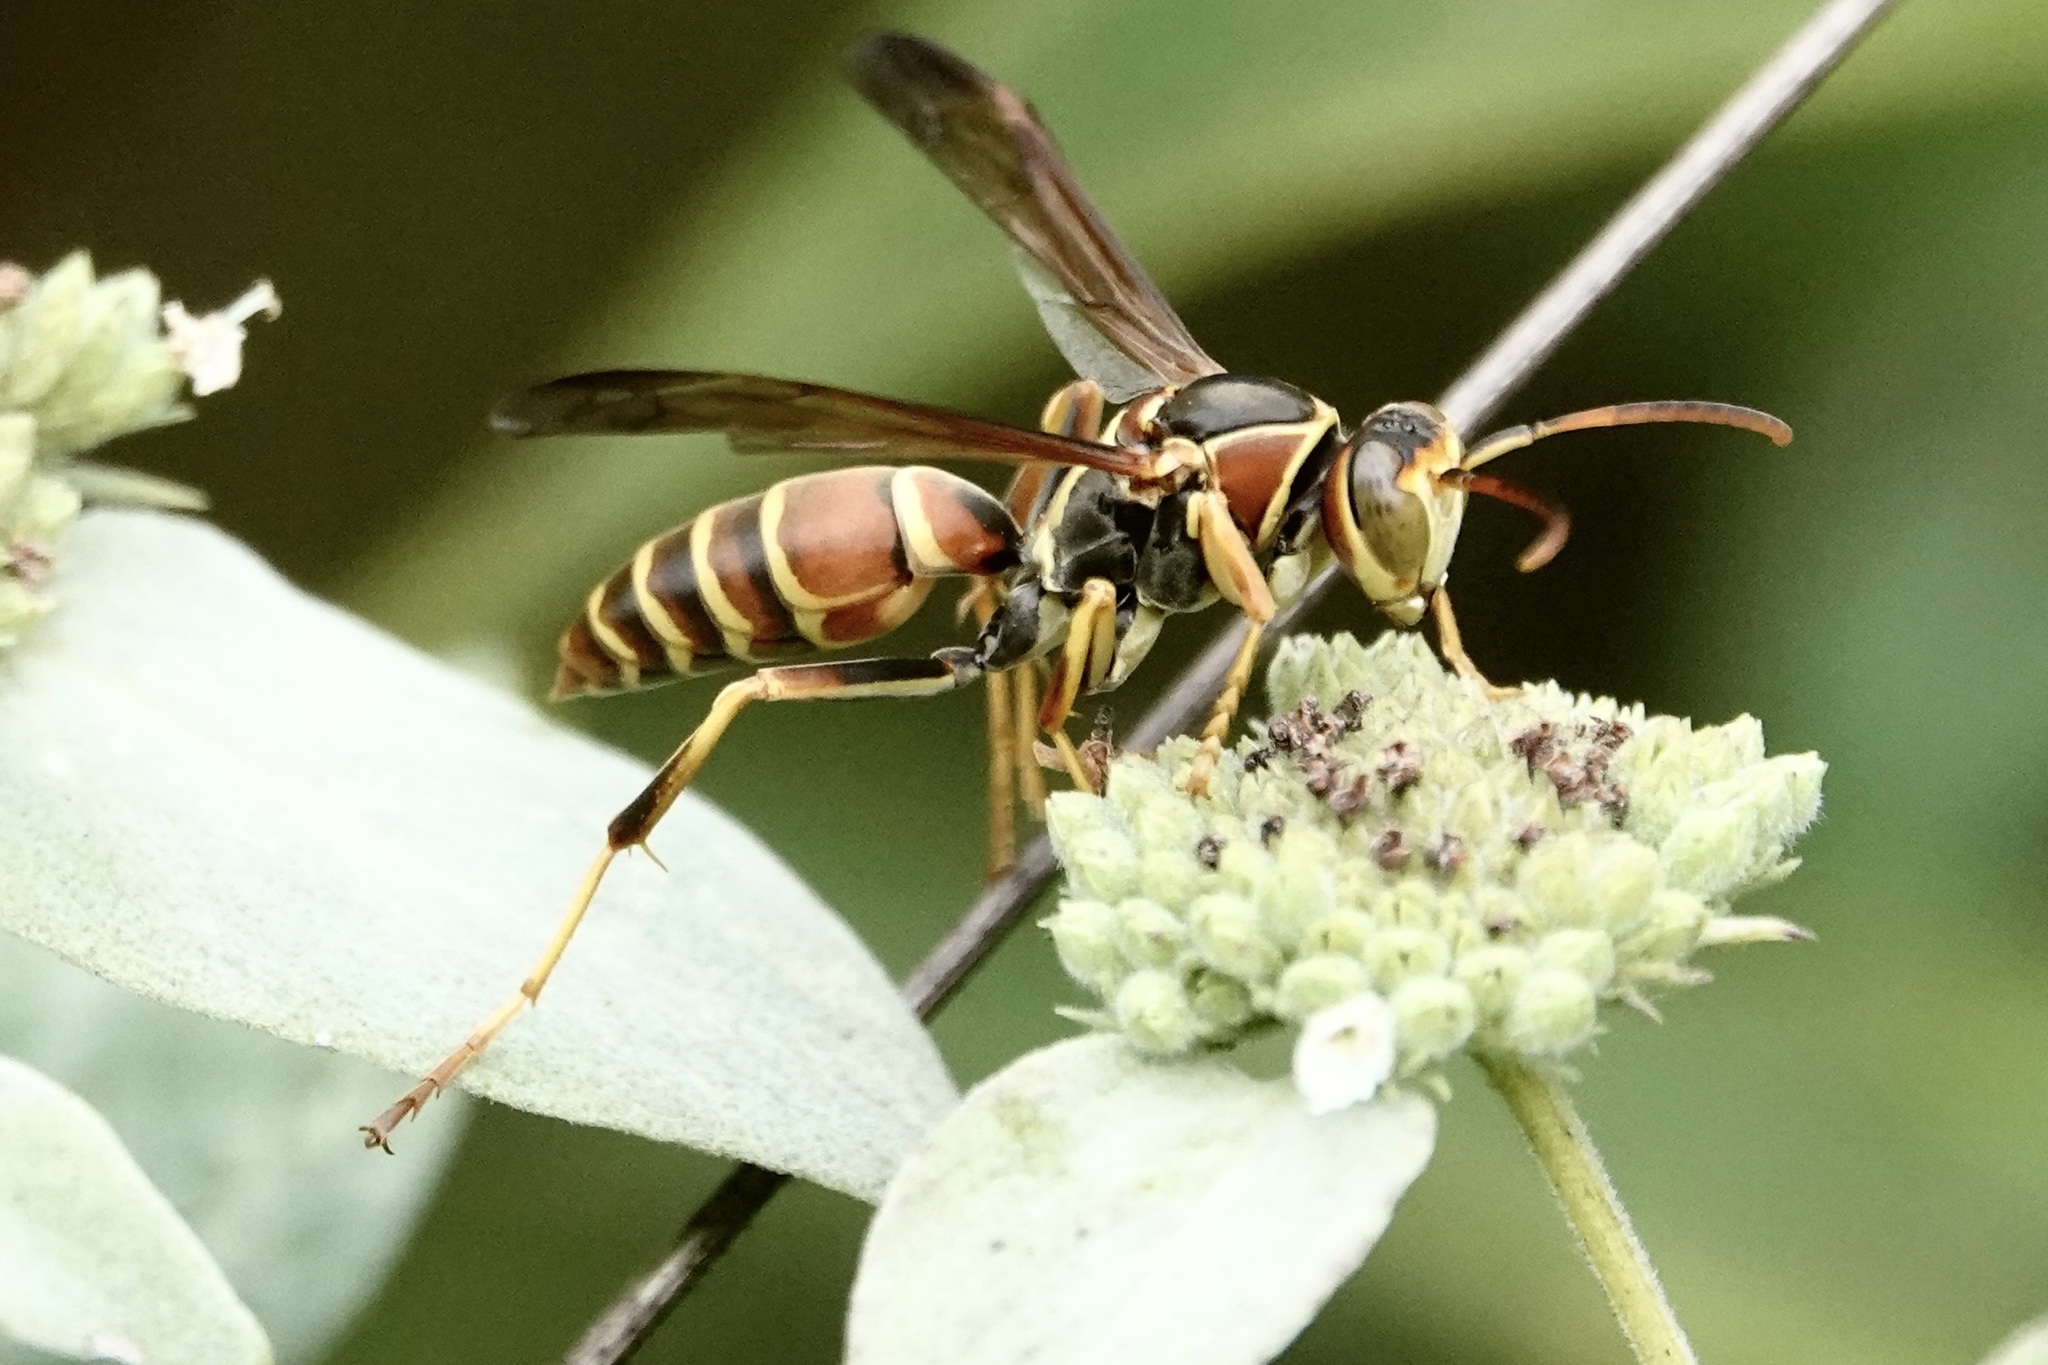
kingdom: Animalia
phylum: Arthropoda
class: Insecta
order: Hymenoptera
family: Eumenidae
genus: Polistes
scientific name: Polistes dorsalis
